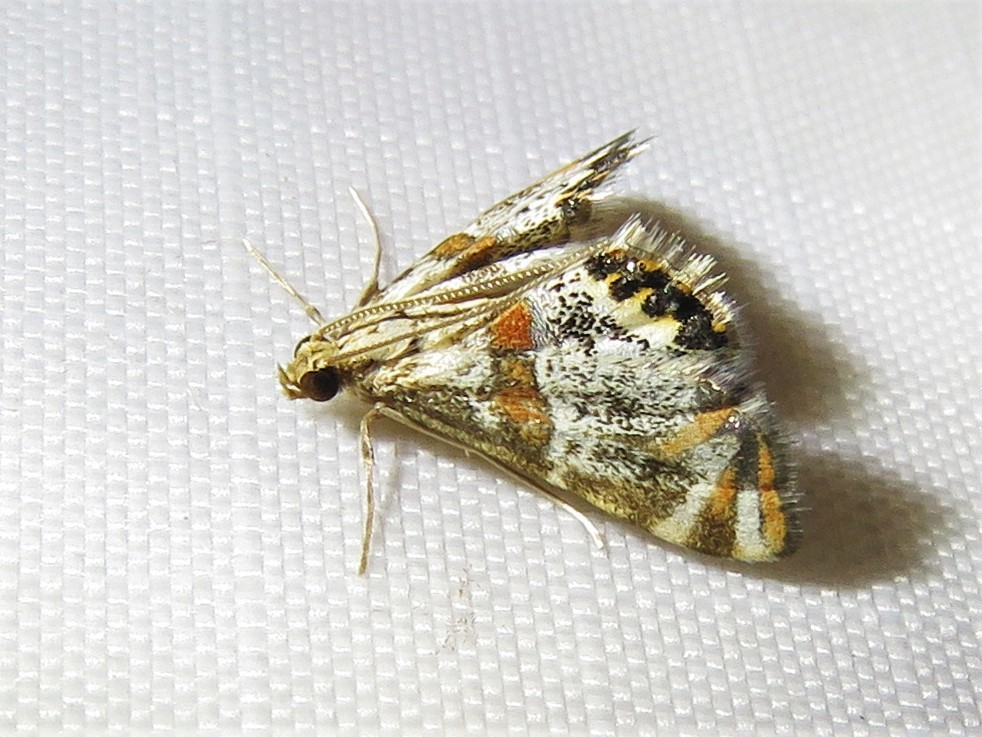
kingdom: Animalia
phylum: Arthropoda
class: Insecta
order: Lepidoptera
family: Crambidae
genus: Petrophila
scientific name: Petrophila jaliscalis
